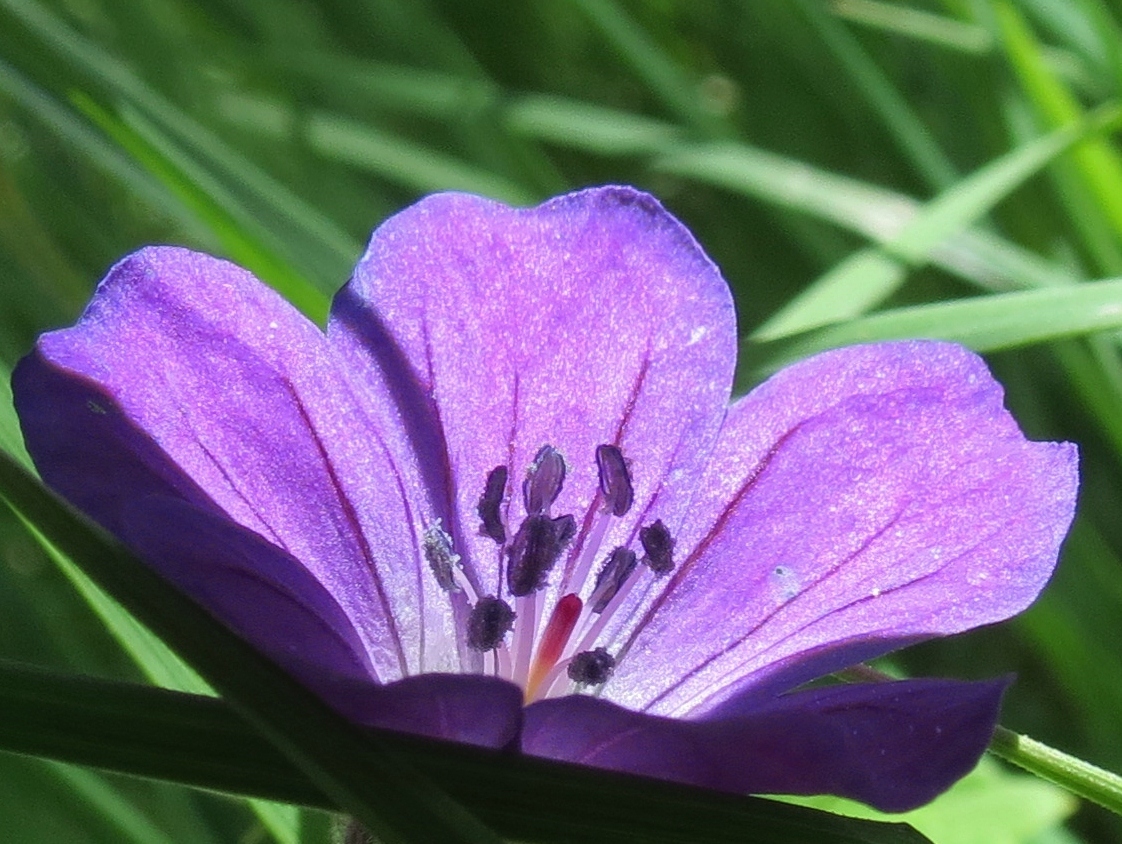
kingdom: Plantae
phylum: Tracheophyta
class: Magnoliopsida
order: Geraniales
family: Geraniaceae
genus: Geranium
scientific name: Geranium sylvaticum
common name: Wood crane's-bill
